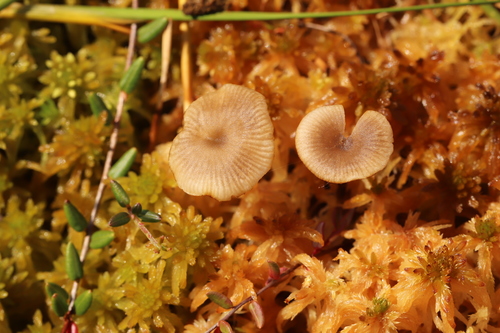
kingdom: Fungi
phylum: Basidiomycota
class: Agaricomycetes
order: Agaricales
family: Lyophyllaceae
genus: Sphagnurus
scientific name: Sphagnurus paluster
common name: Sphagnum greyling
